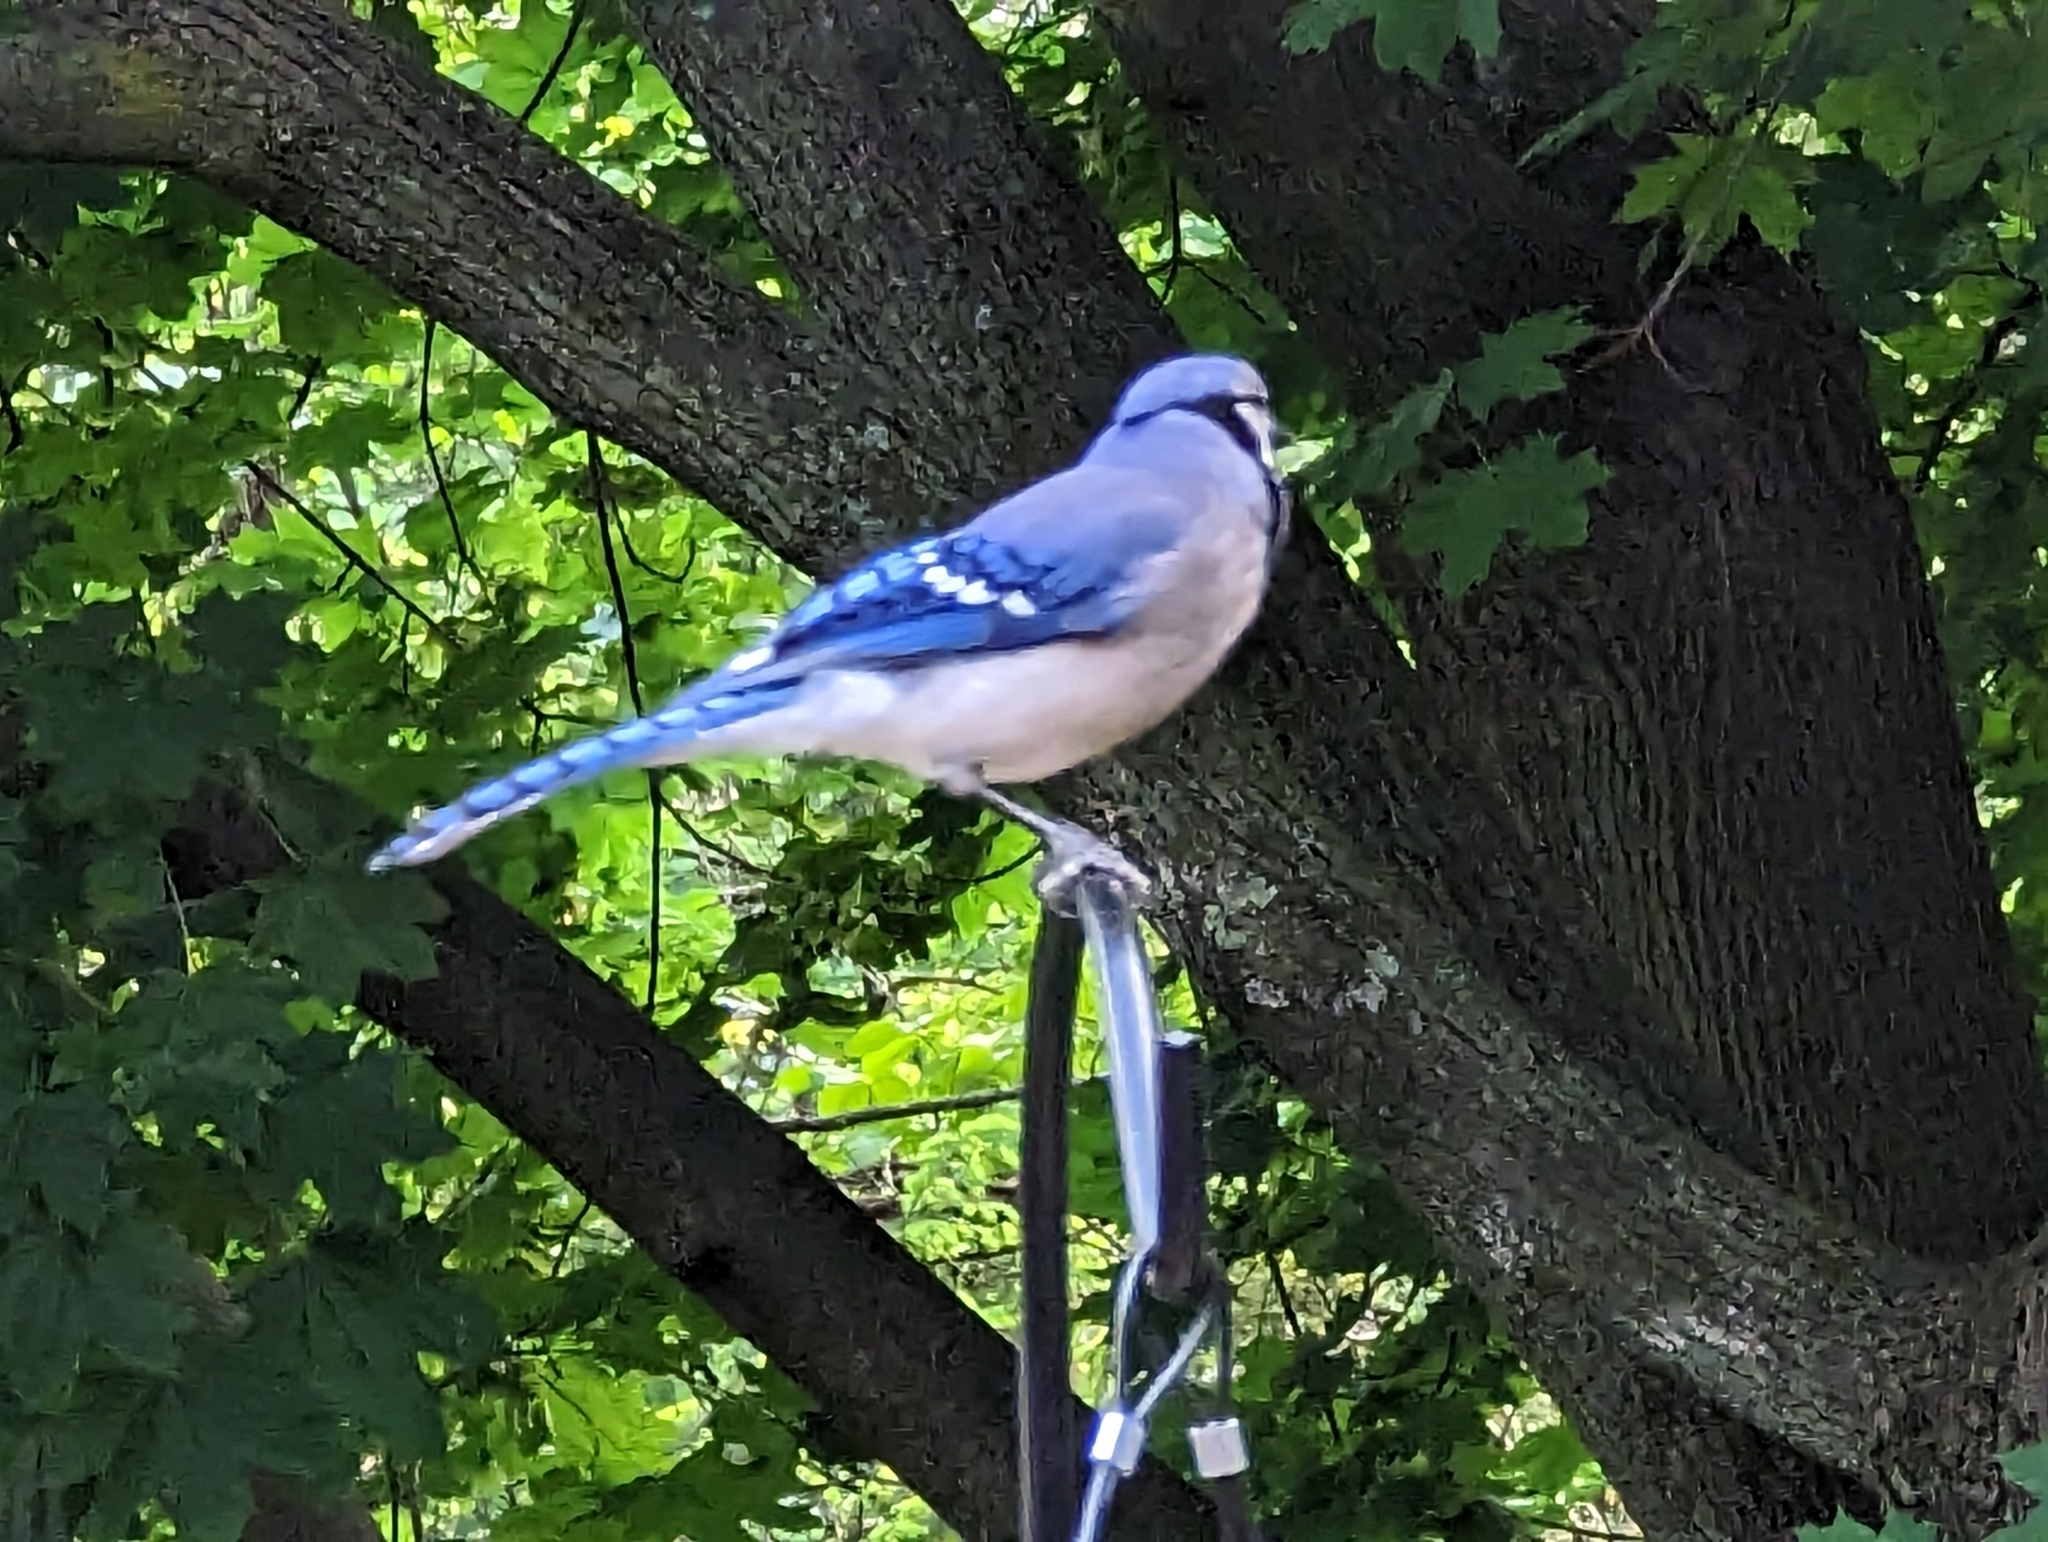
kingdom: Animalia
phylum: Chordata
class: Aves
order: Passeriformes
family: Corvidae
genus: Cyanocitta
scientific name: Cyanocitta cristata
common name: Blue jay
